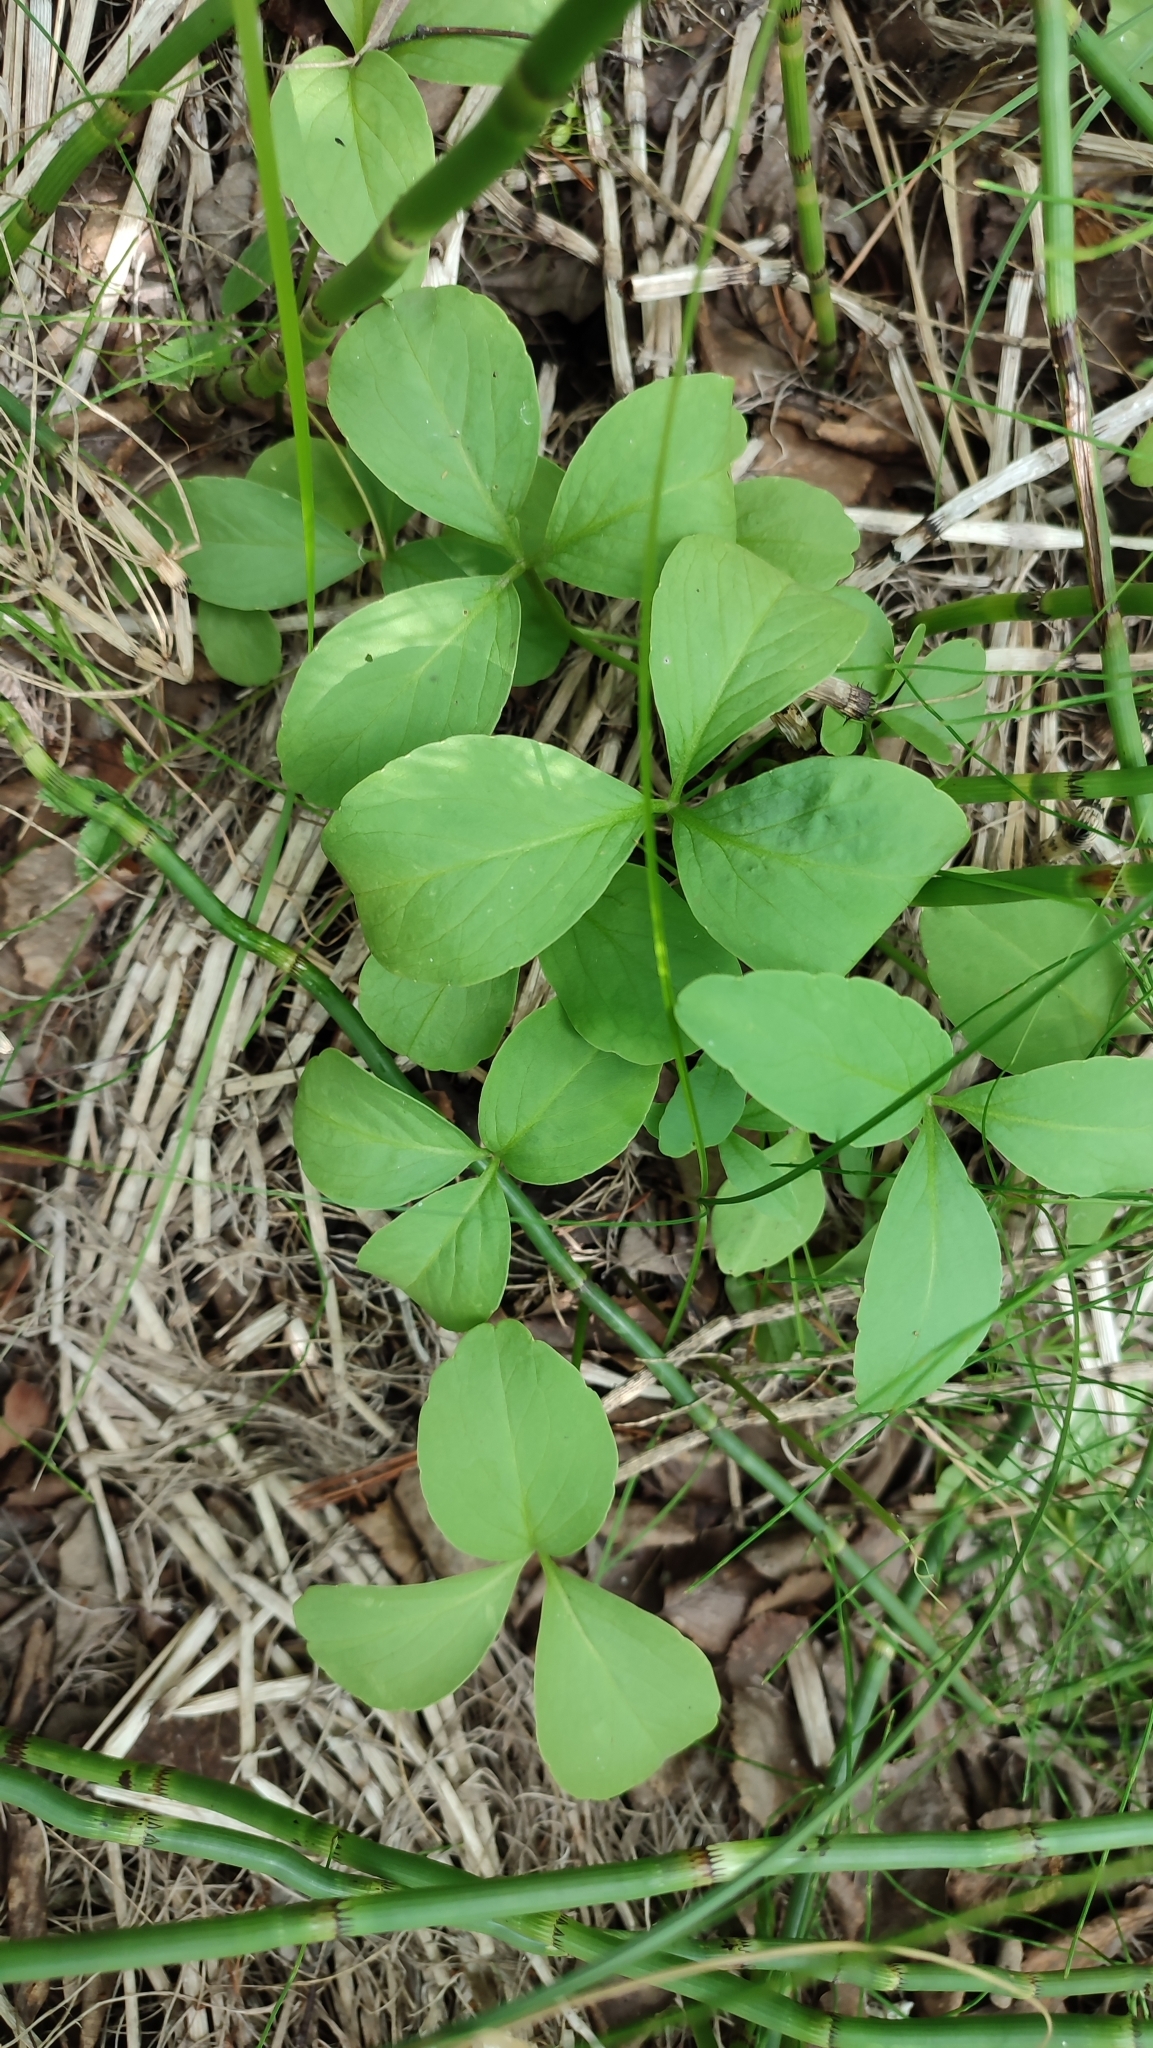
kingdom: Plantae
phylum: Tracheophyta
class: Magnoliopsida
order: Asterales
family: Menyanthaceae
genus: Menyanthes
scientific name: Menyanthes trifoliata
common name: Bogbean
